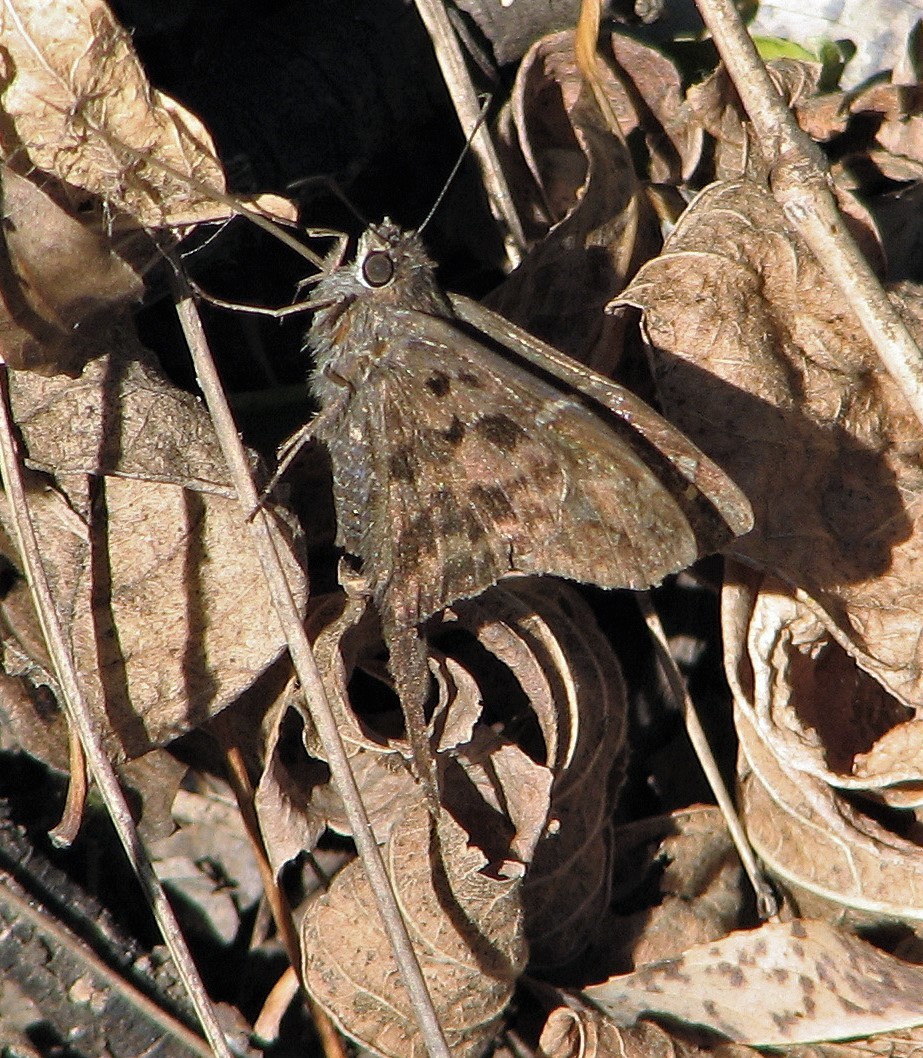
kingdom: Animalia
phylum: Arthropoda
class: Insecta
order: Lepidoptera
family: Hesperiidae
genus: Thorybes
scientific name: Thorybes
